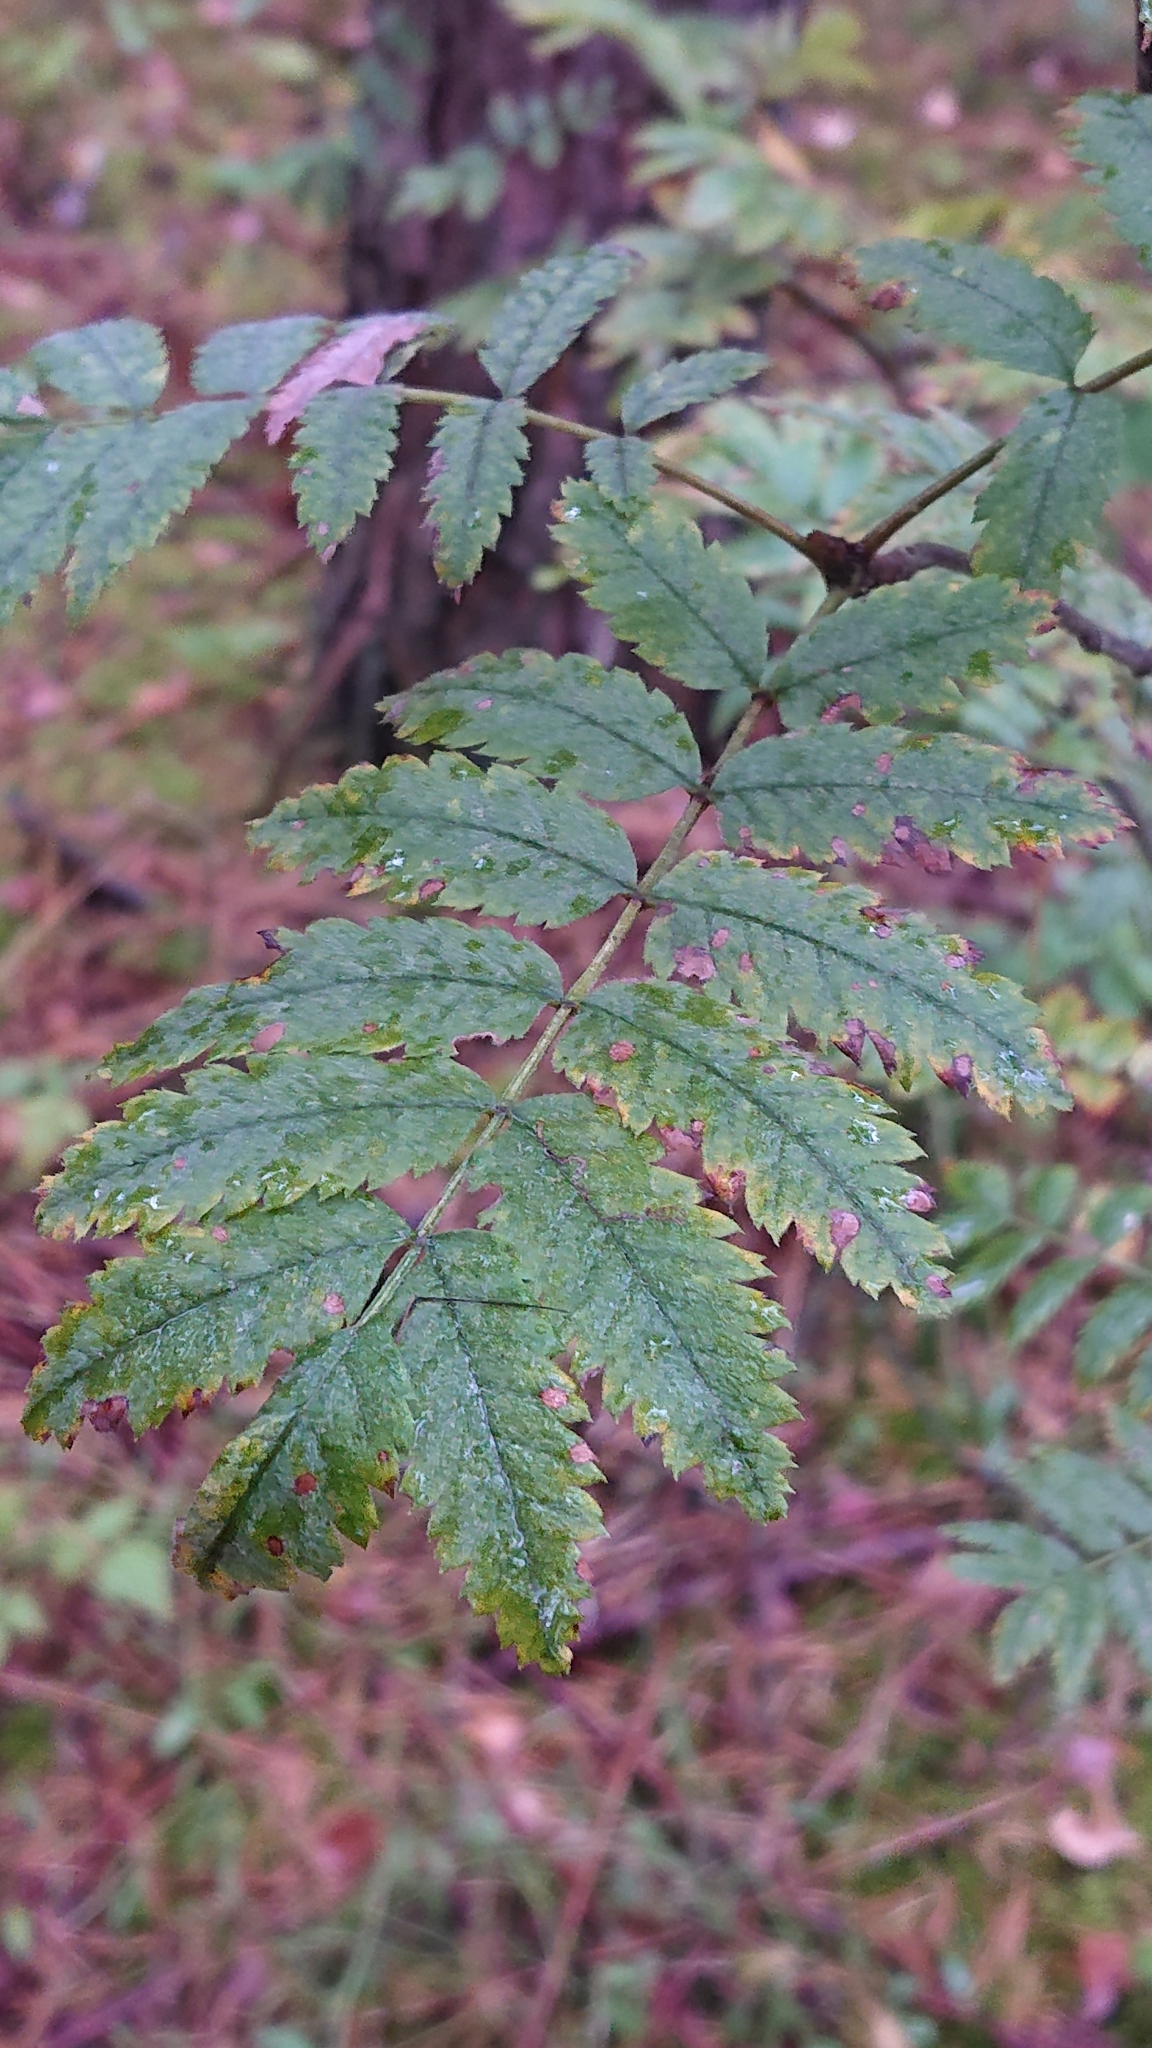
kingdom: Plantae
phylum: Tracheophyta
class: Magnoliopsida
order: Rosales
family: Rosaceae
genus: Sorbus
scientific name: Sorbus aucuparia
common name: Rowan
